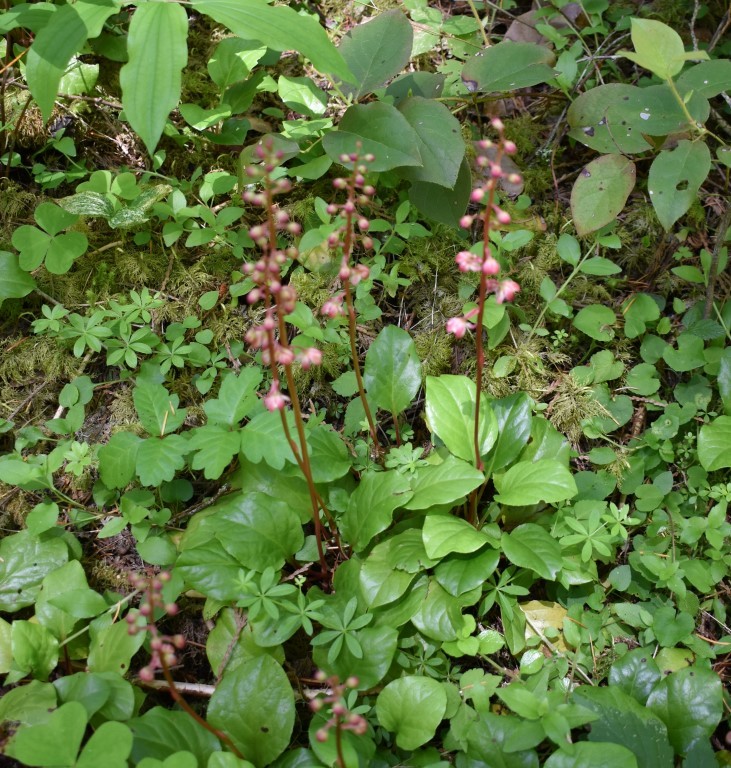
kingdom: Plantae
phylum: Tracheophyta
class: Magnoliopsida
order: Ericales
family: Ericaceae
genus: Pyrola
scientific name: Pyrola asarifolia
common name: Bog wintergreen
